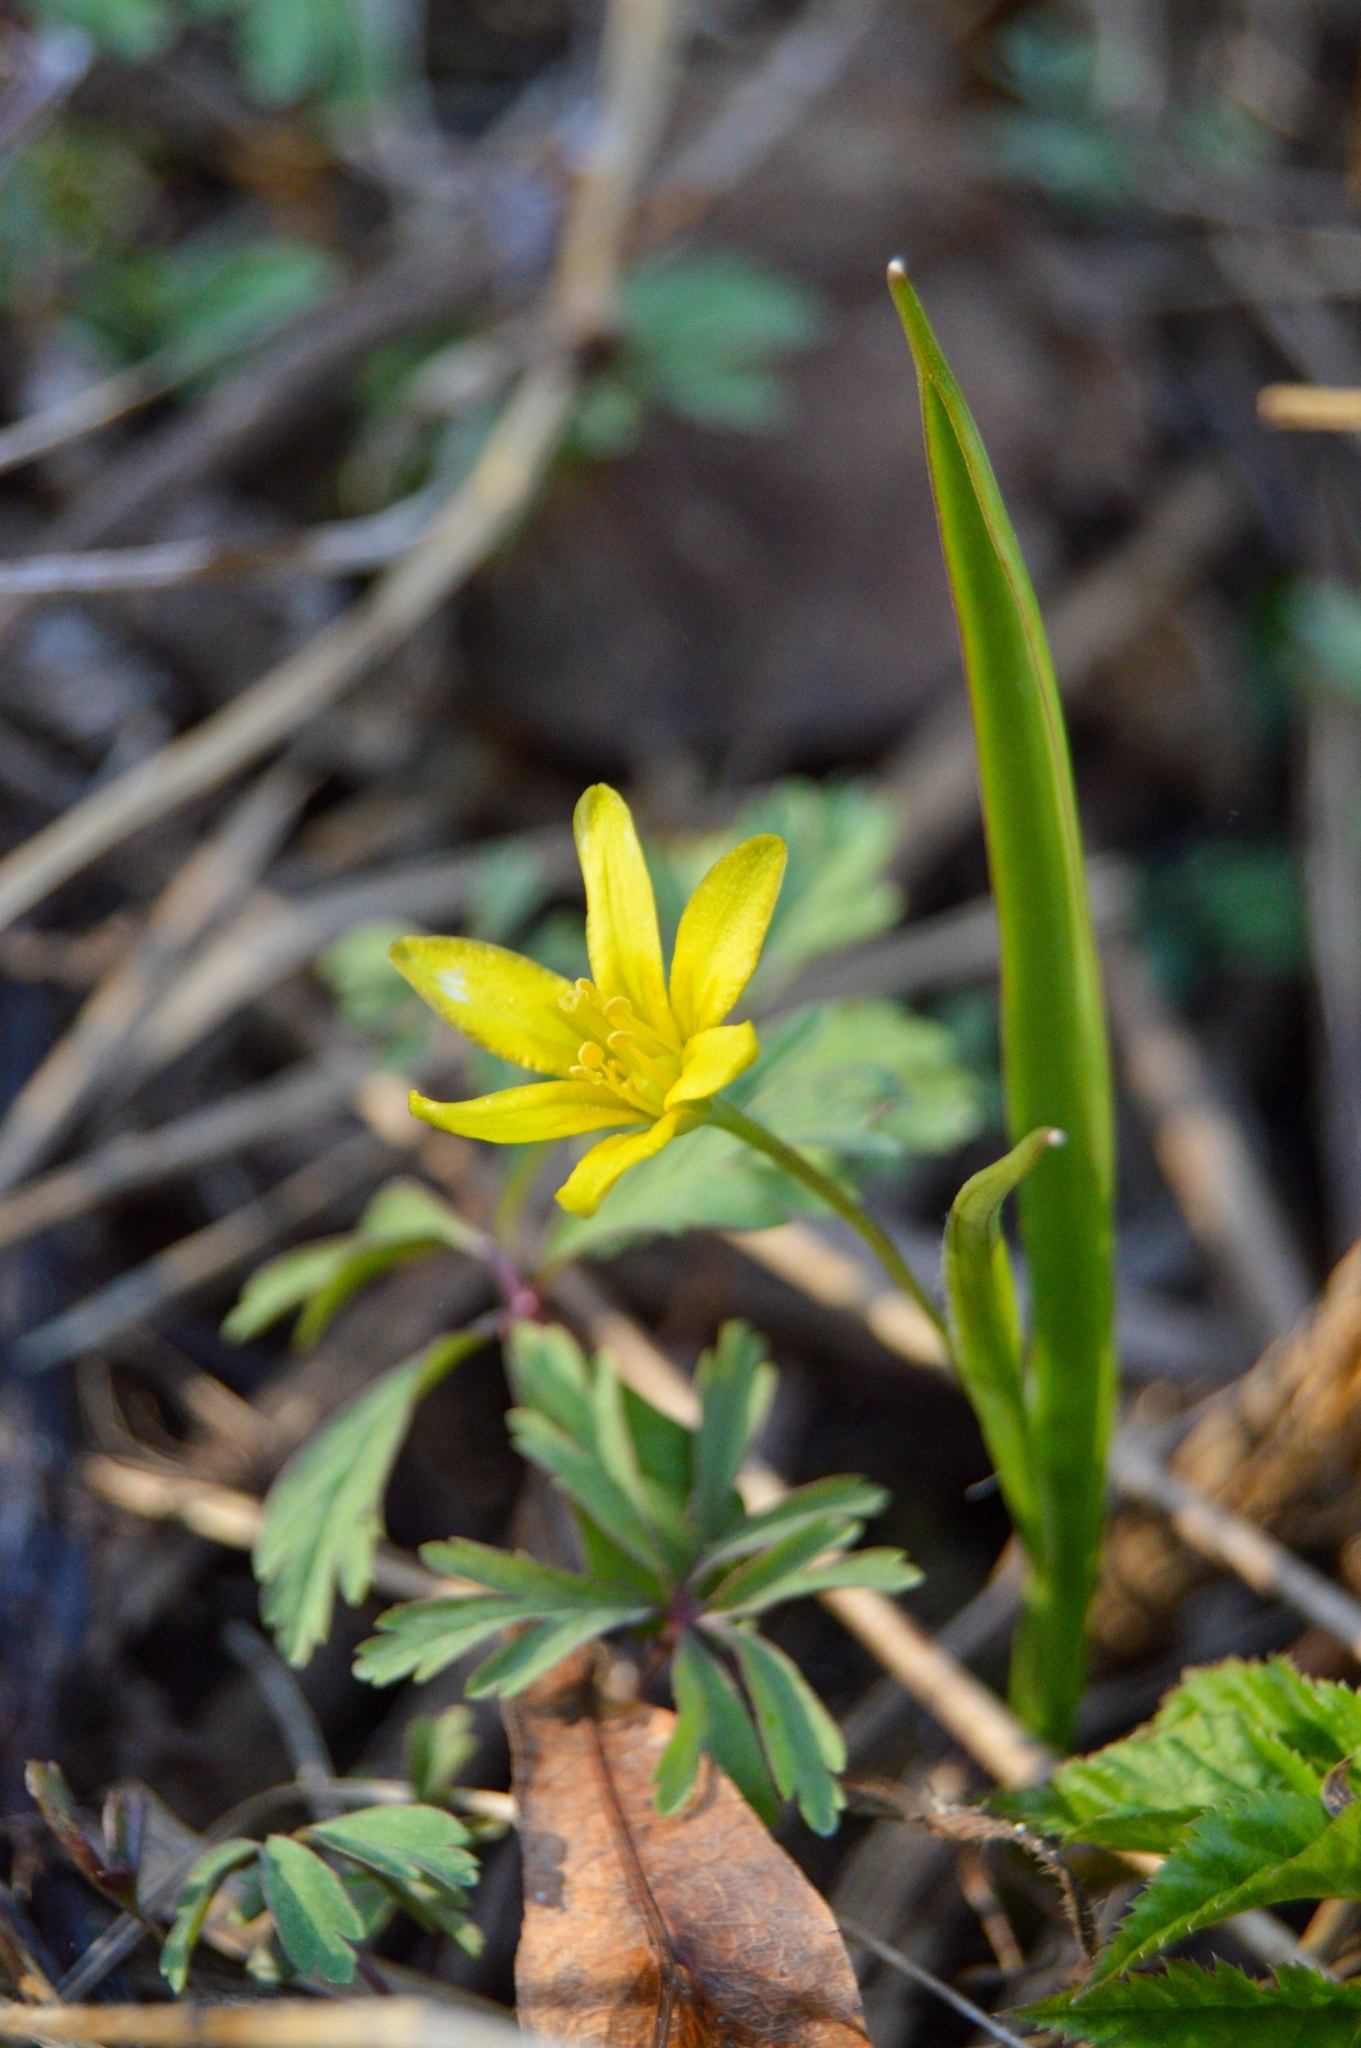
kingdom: Plantae
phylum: Tracheophyta
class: Liliopsida
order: Liliales
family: Liliaceae
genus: Gagea
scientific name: Gagea lutea
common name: Yellow star-of-bethlehem
